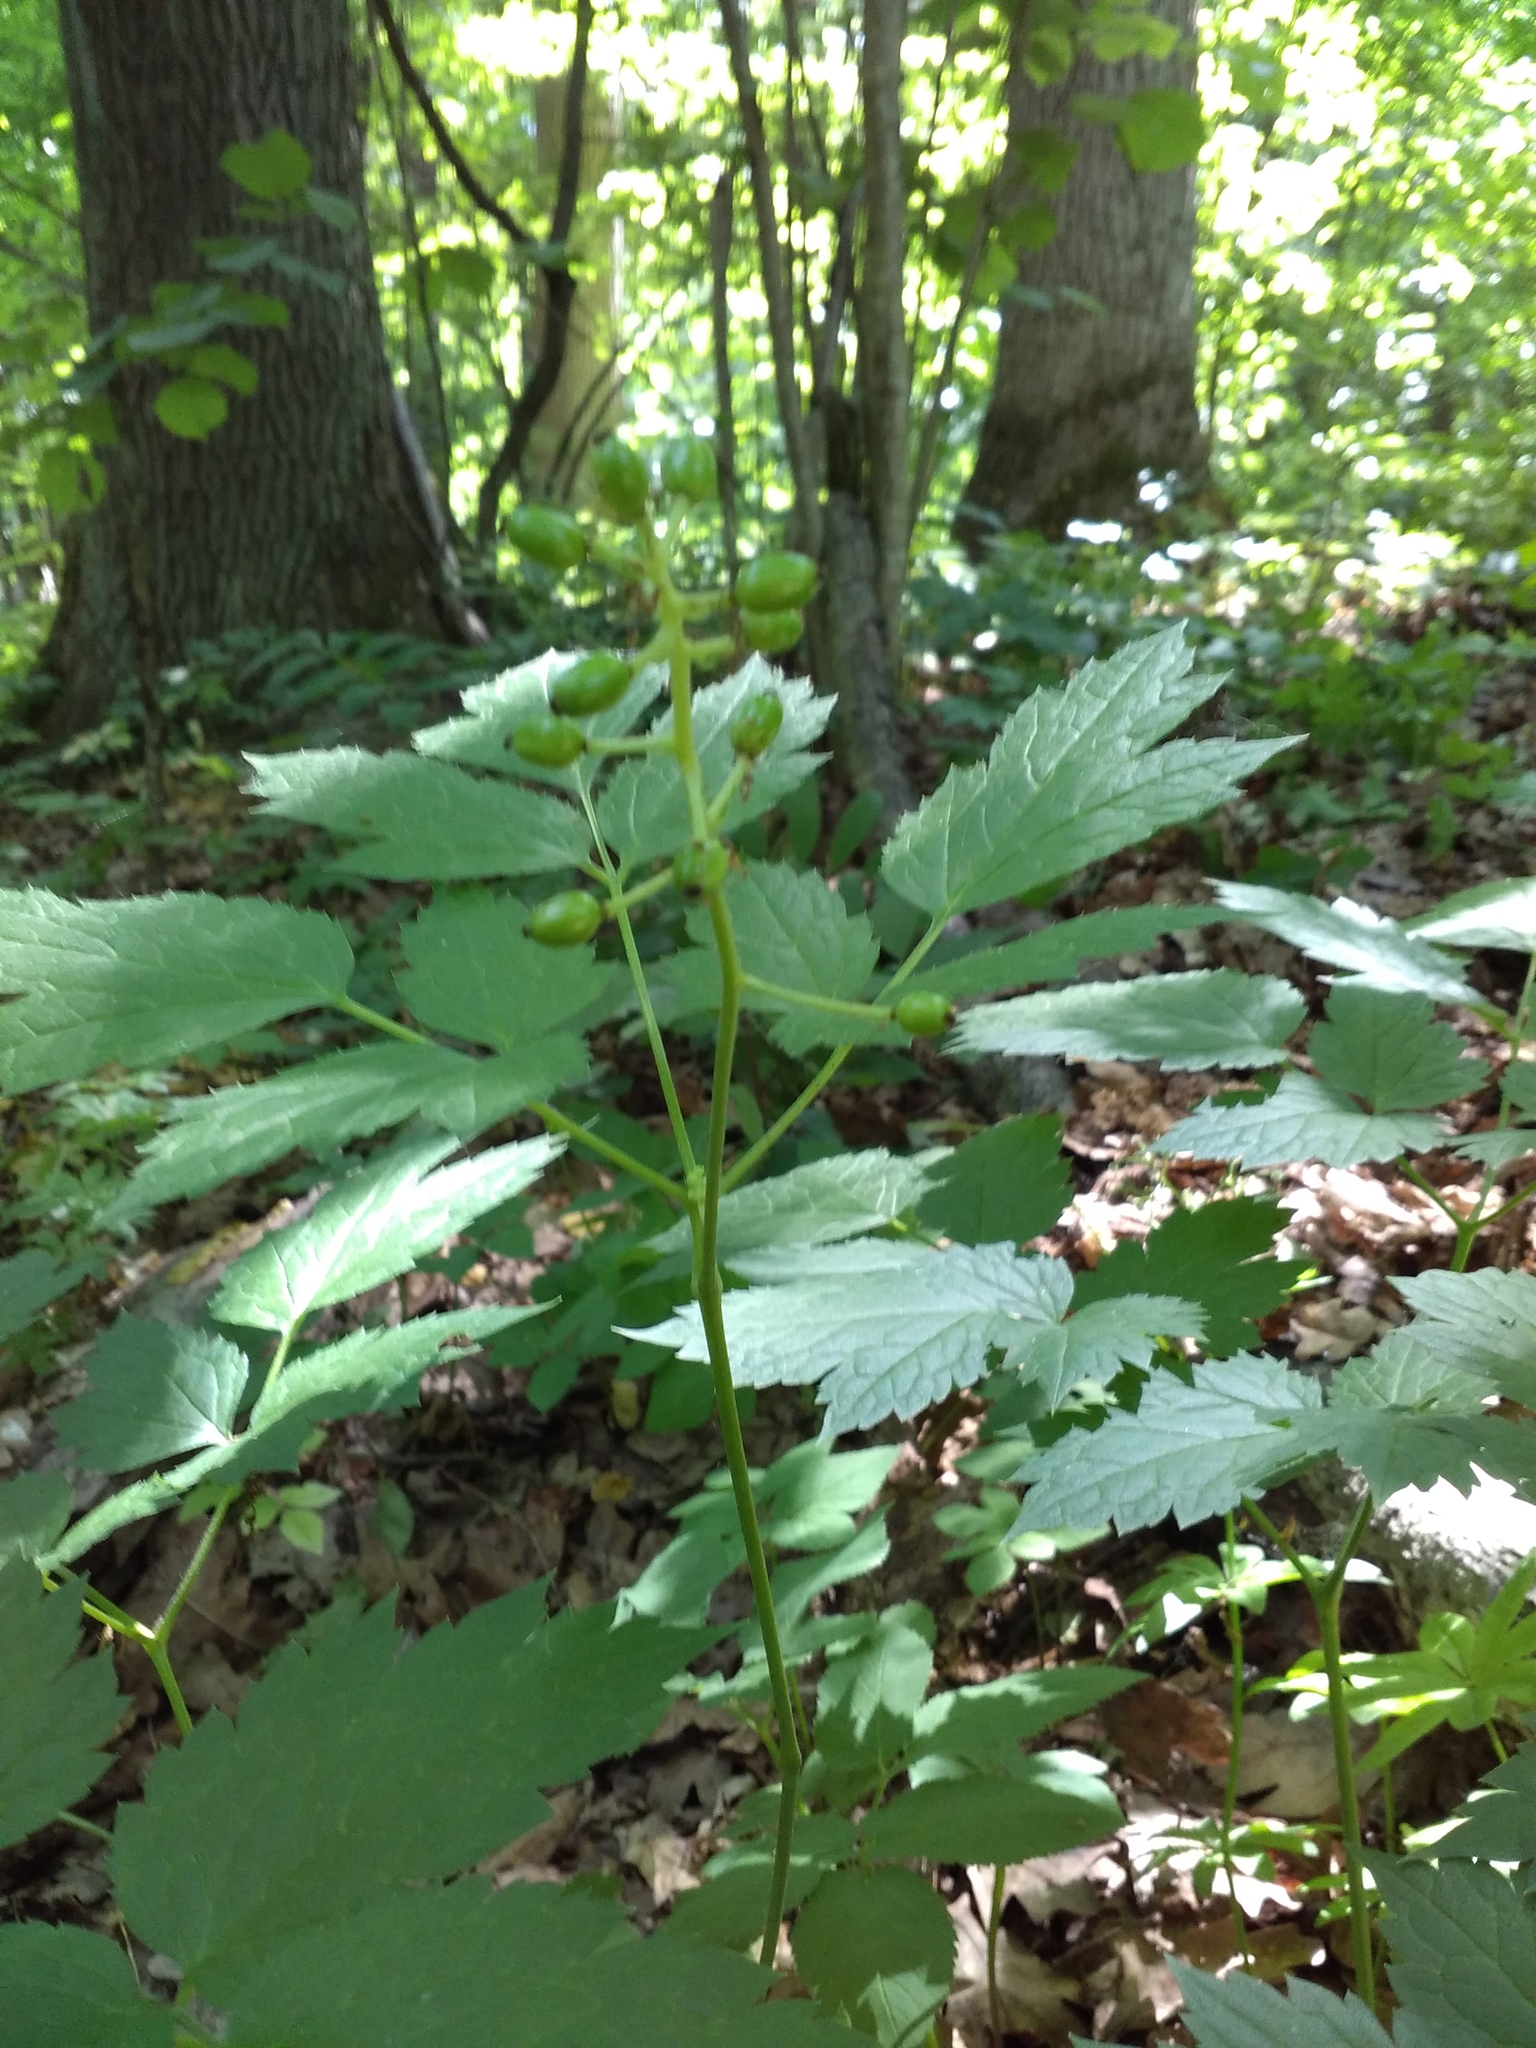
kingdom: Plantae
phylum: Tracheophyta
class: Magnoliopsida
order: Ranunculales
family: Ranunculaceae
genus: Actaea
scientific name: Actaea spicata
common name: Baneberry
